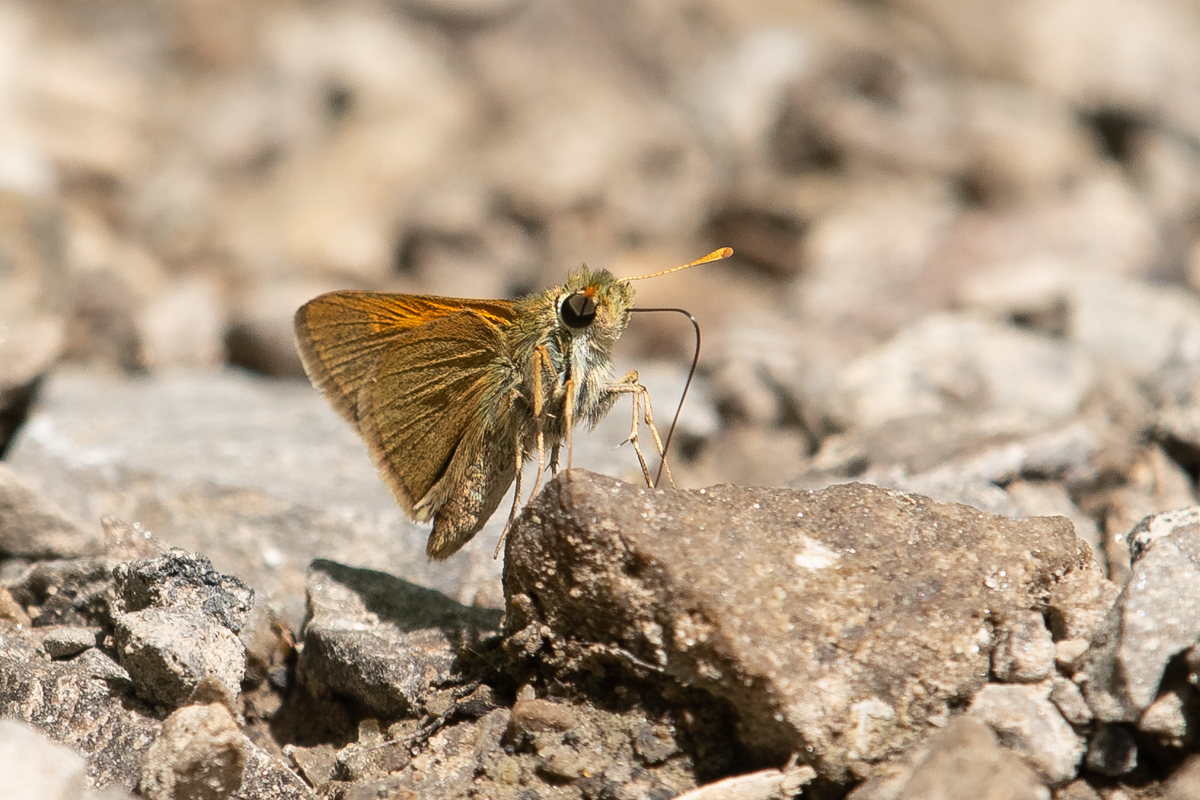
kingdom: Animalia
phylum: Arthropoda
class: Insecta
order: Lepidoptera
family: Hesperiidae
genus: Polites
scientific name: Polites origenes
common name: Crossline skipper
